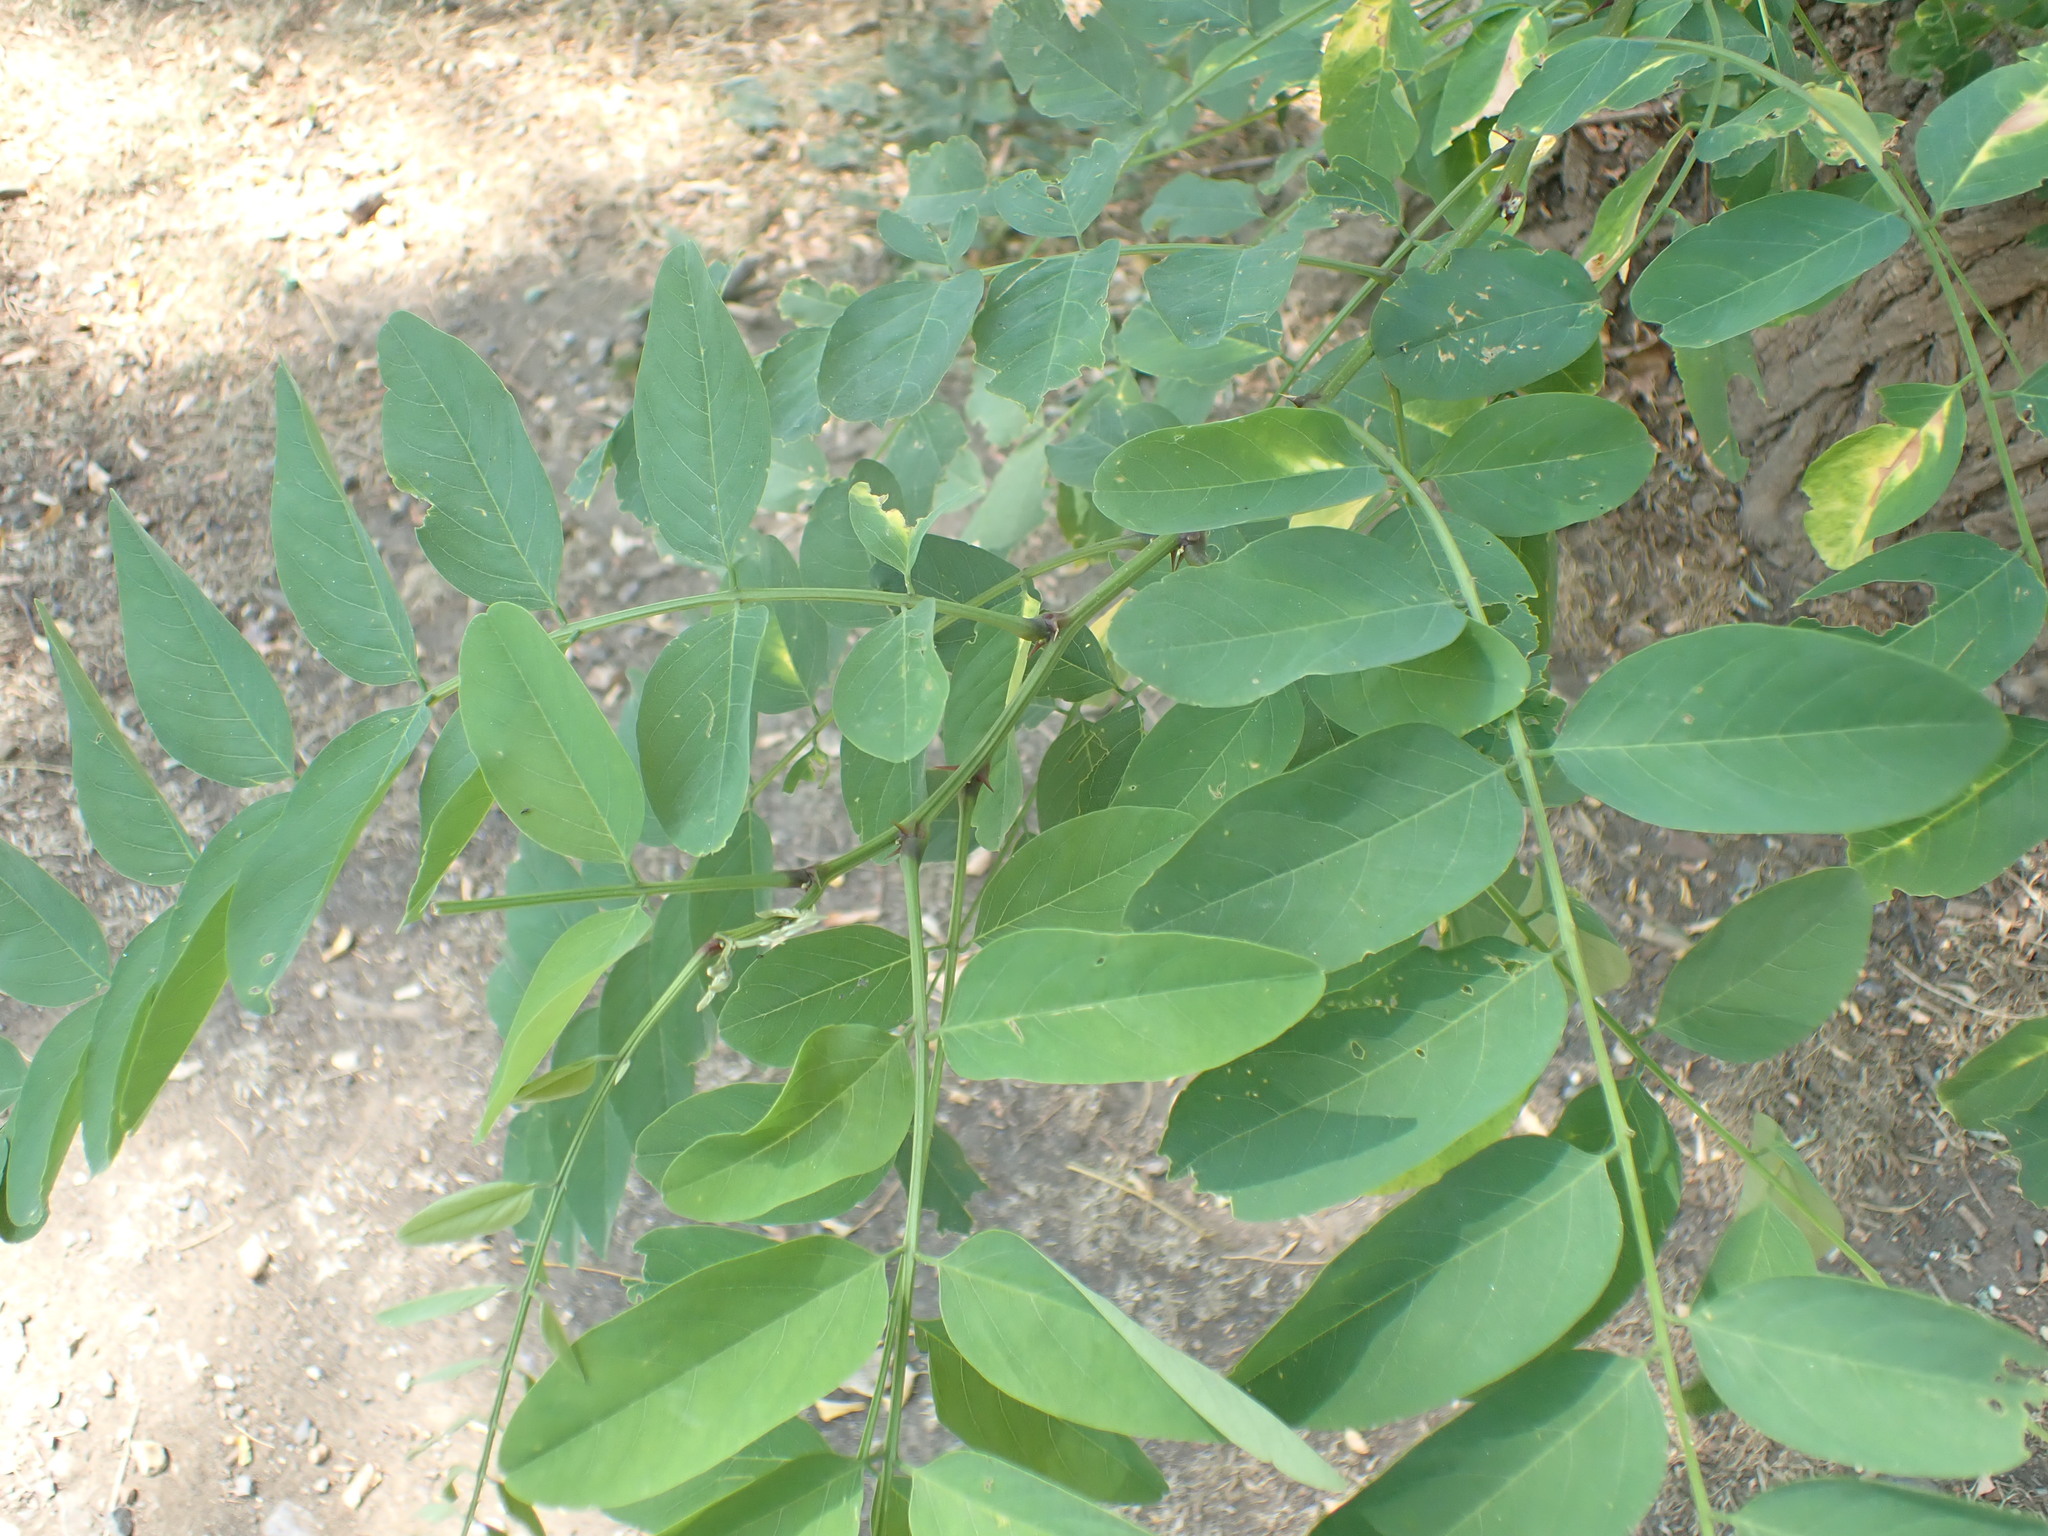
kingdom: Plantae
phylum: Tracheophyta
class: Magnoliopsida
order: Fabales
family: Fabaceae
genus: Robinia
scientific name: Robinia pseudoacacia
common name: Black locust
